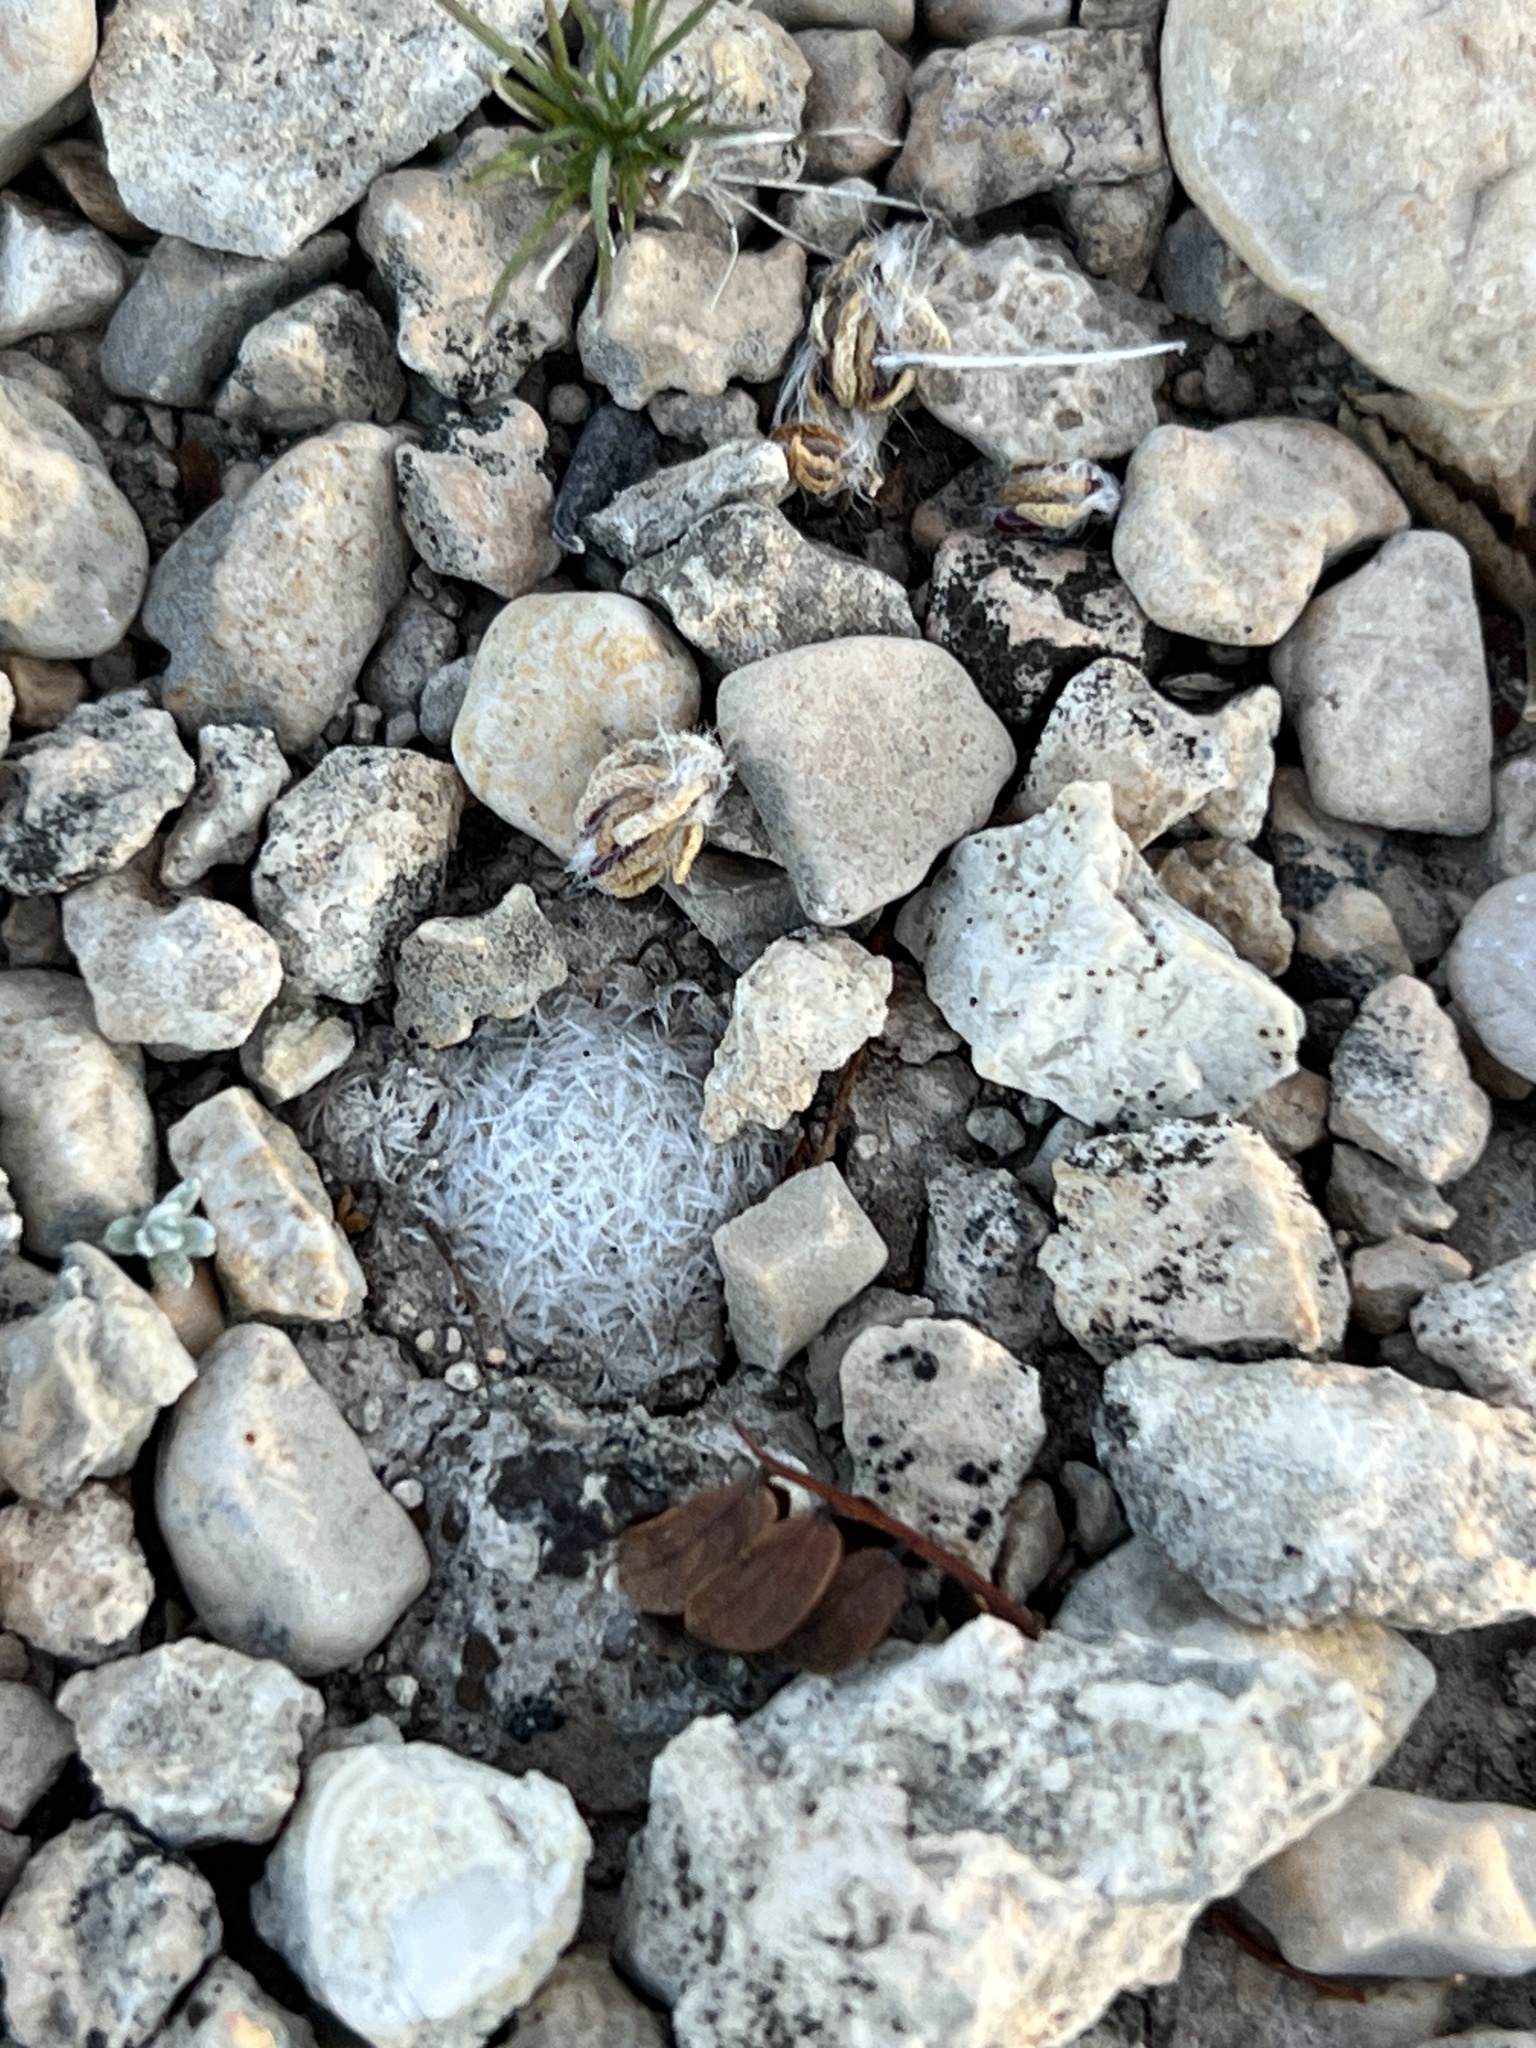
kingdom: Plantae
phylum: Tracheophyta
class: Magnoliopsida
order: Caryophyllales
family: Cactaceae
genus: Mammillaria
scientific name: Mammillaria lasiacantha
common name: Lace-spine nipple cactus
